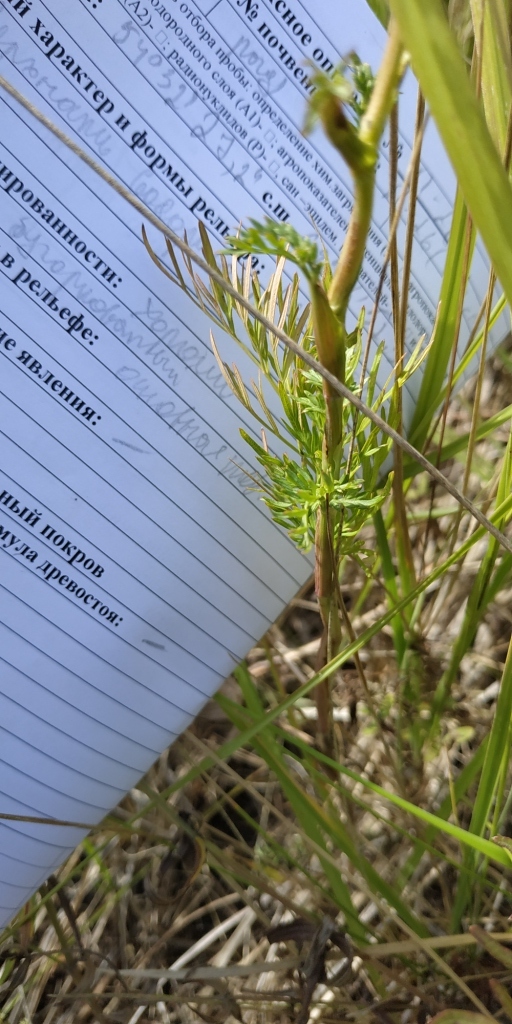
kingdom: Plantae
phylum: Tracheophyta
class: Magnoliopsida
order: Apiales
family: Apiaceae
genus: Kadenia
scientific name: Kadenia dubia
